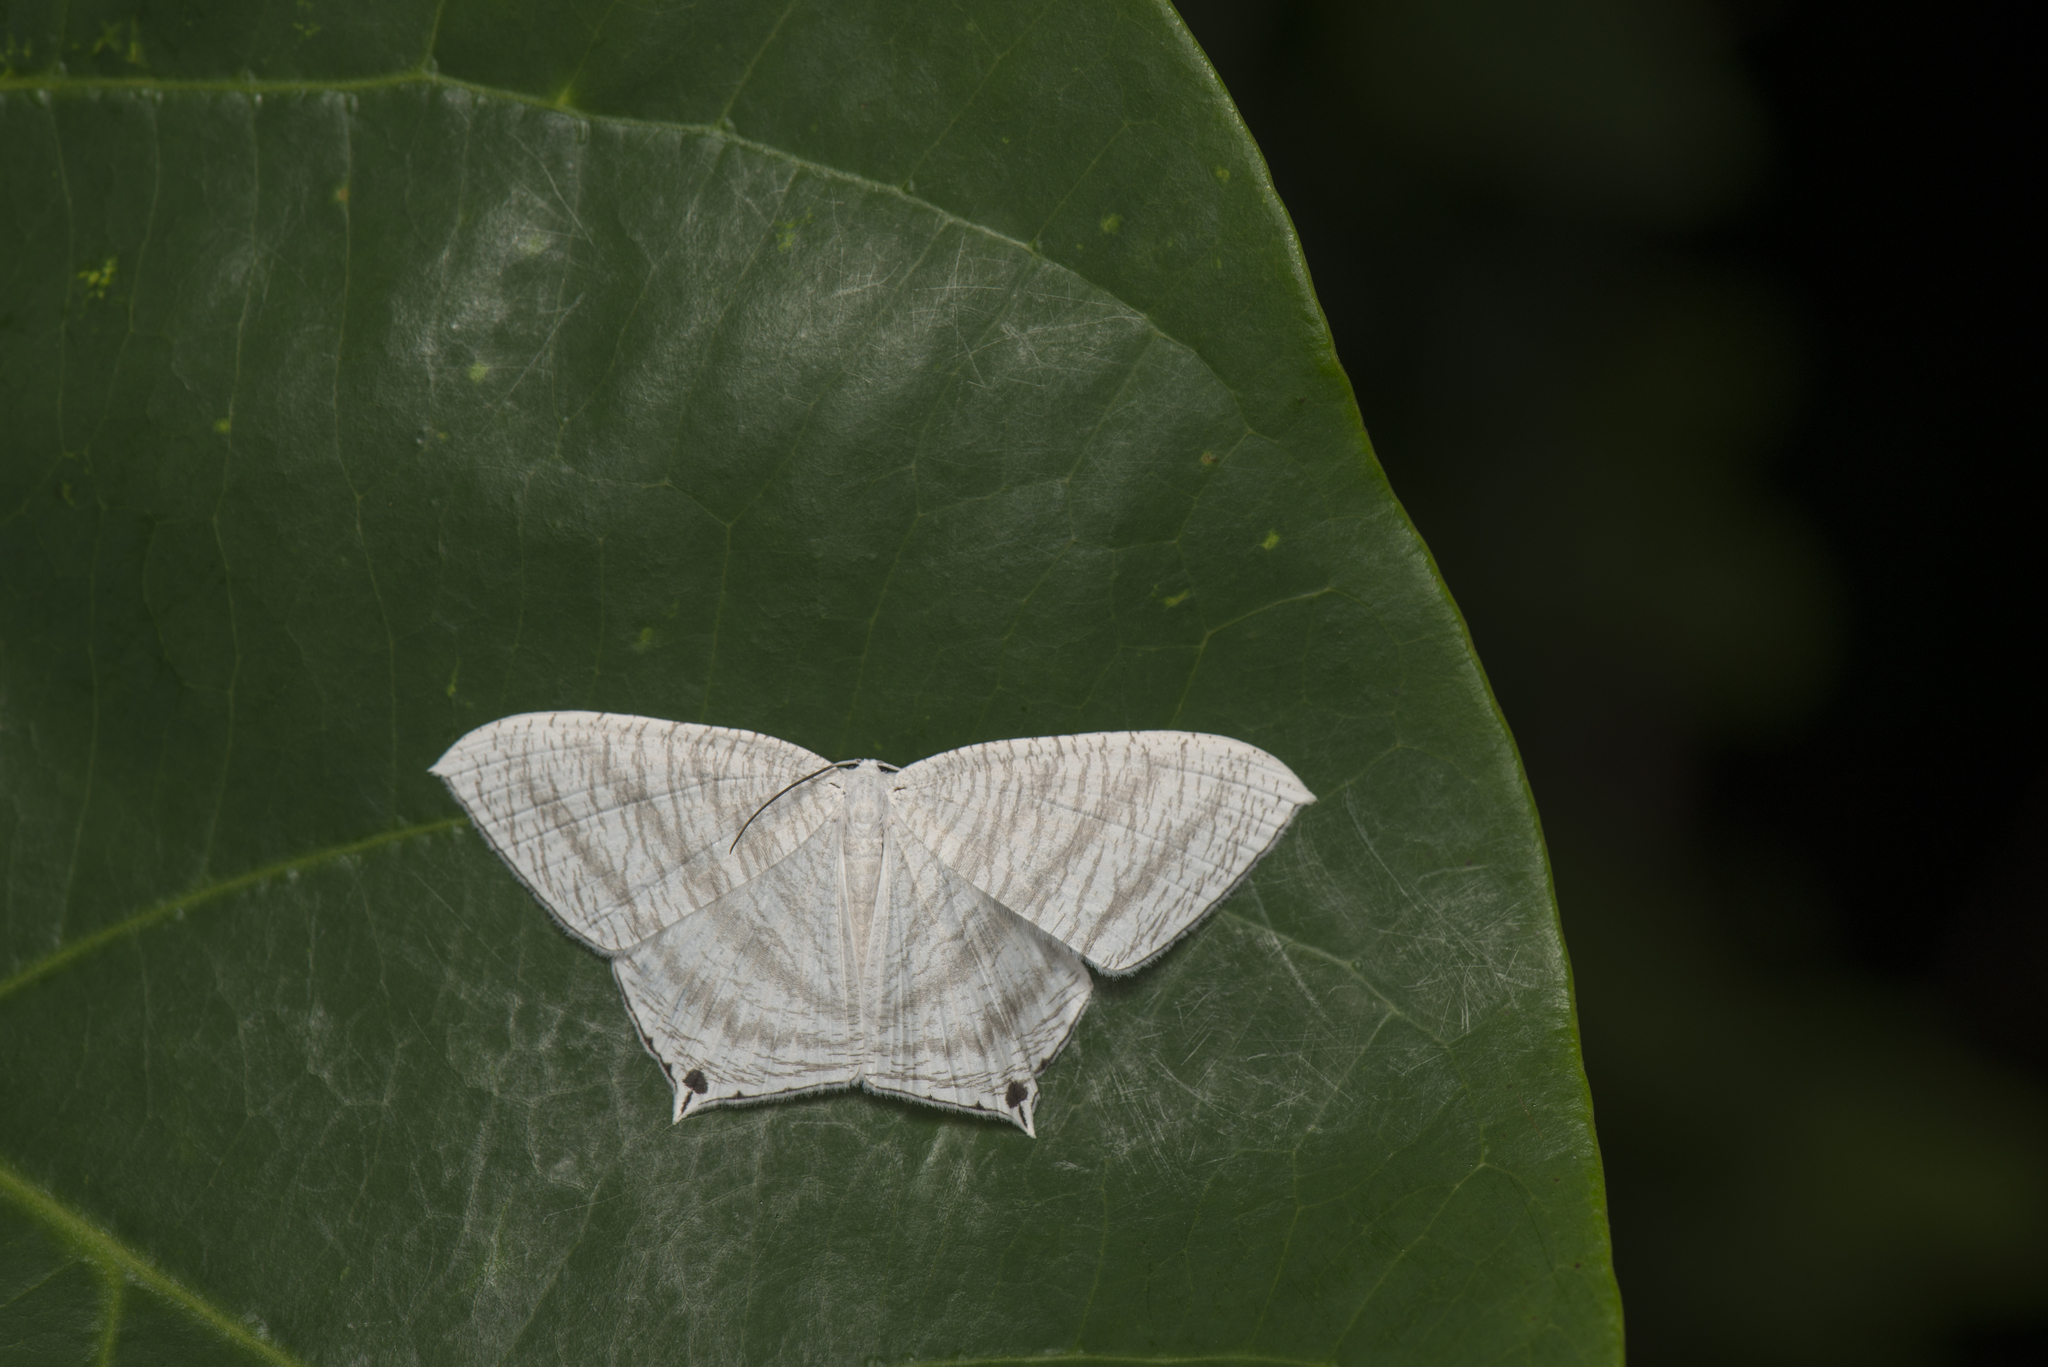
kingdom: Animalia
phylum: Arthropoda
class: Insecta
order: Lepidoptera
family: Uraniidae
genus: Micronia
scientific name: Micronia aculeata
